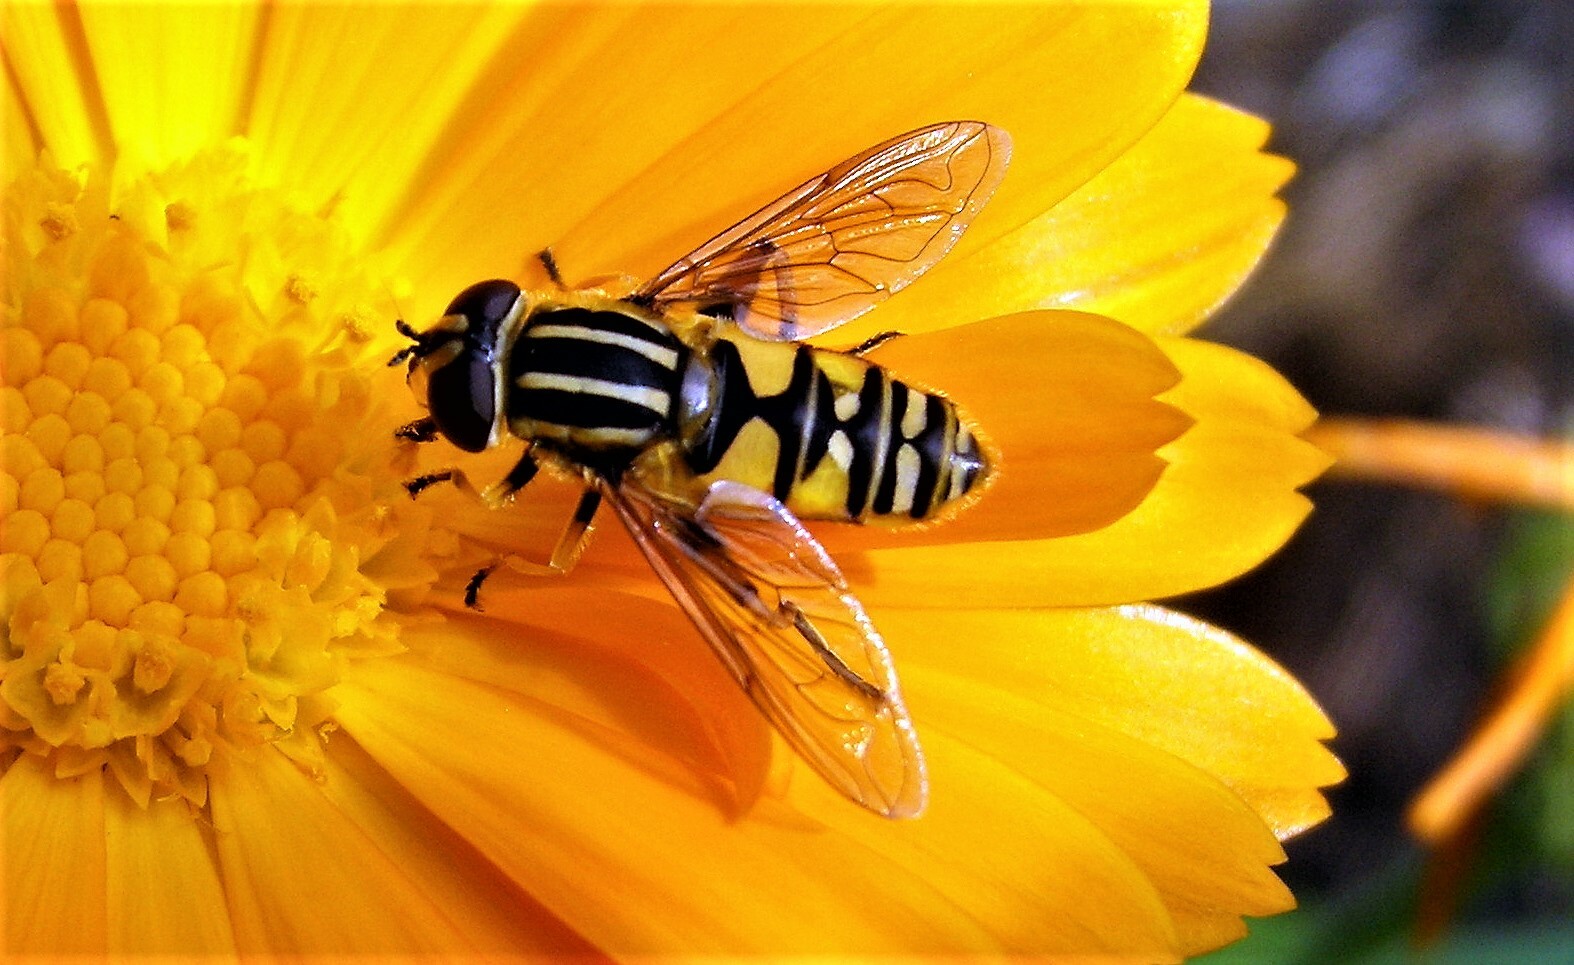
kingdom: Animalia
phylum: Arthropoda
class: Insecta
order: Diptera
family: Syrphidae
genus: Helophilus
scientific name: Helophilus pendulus
